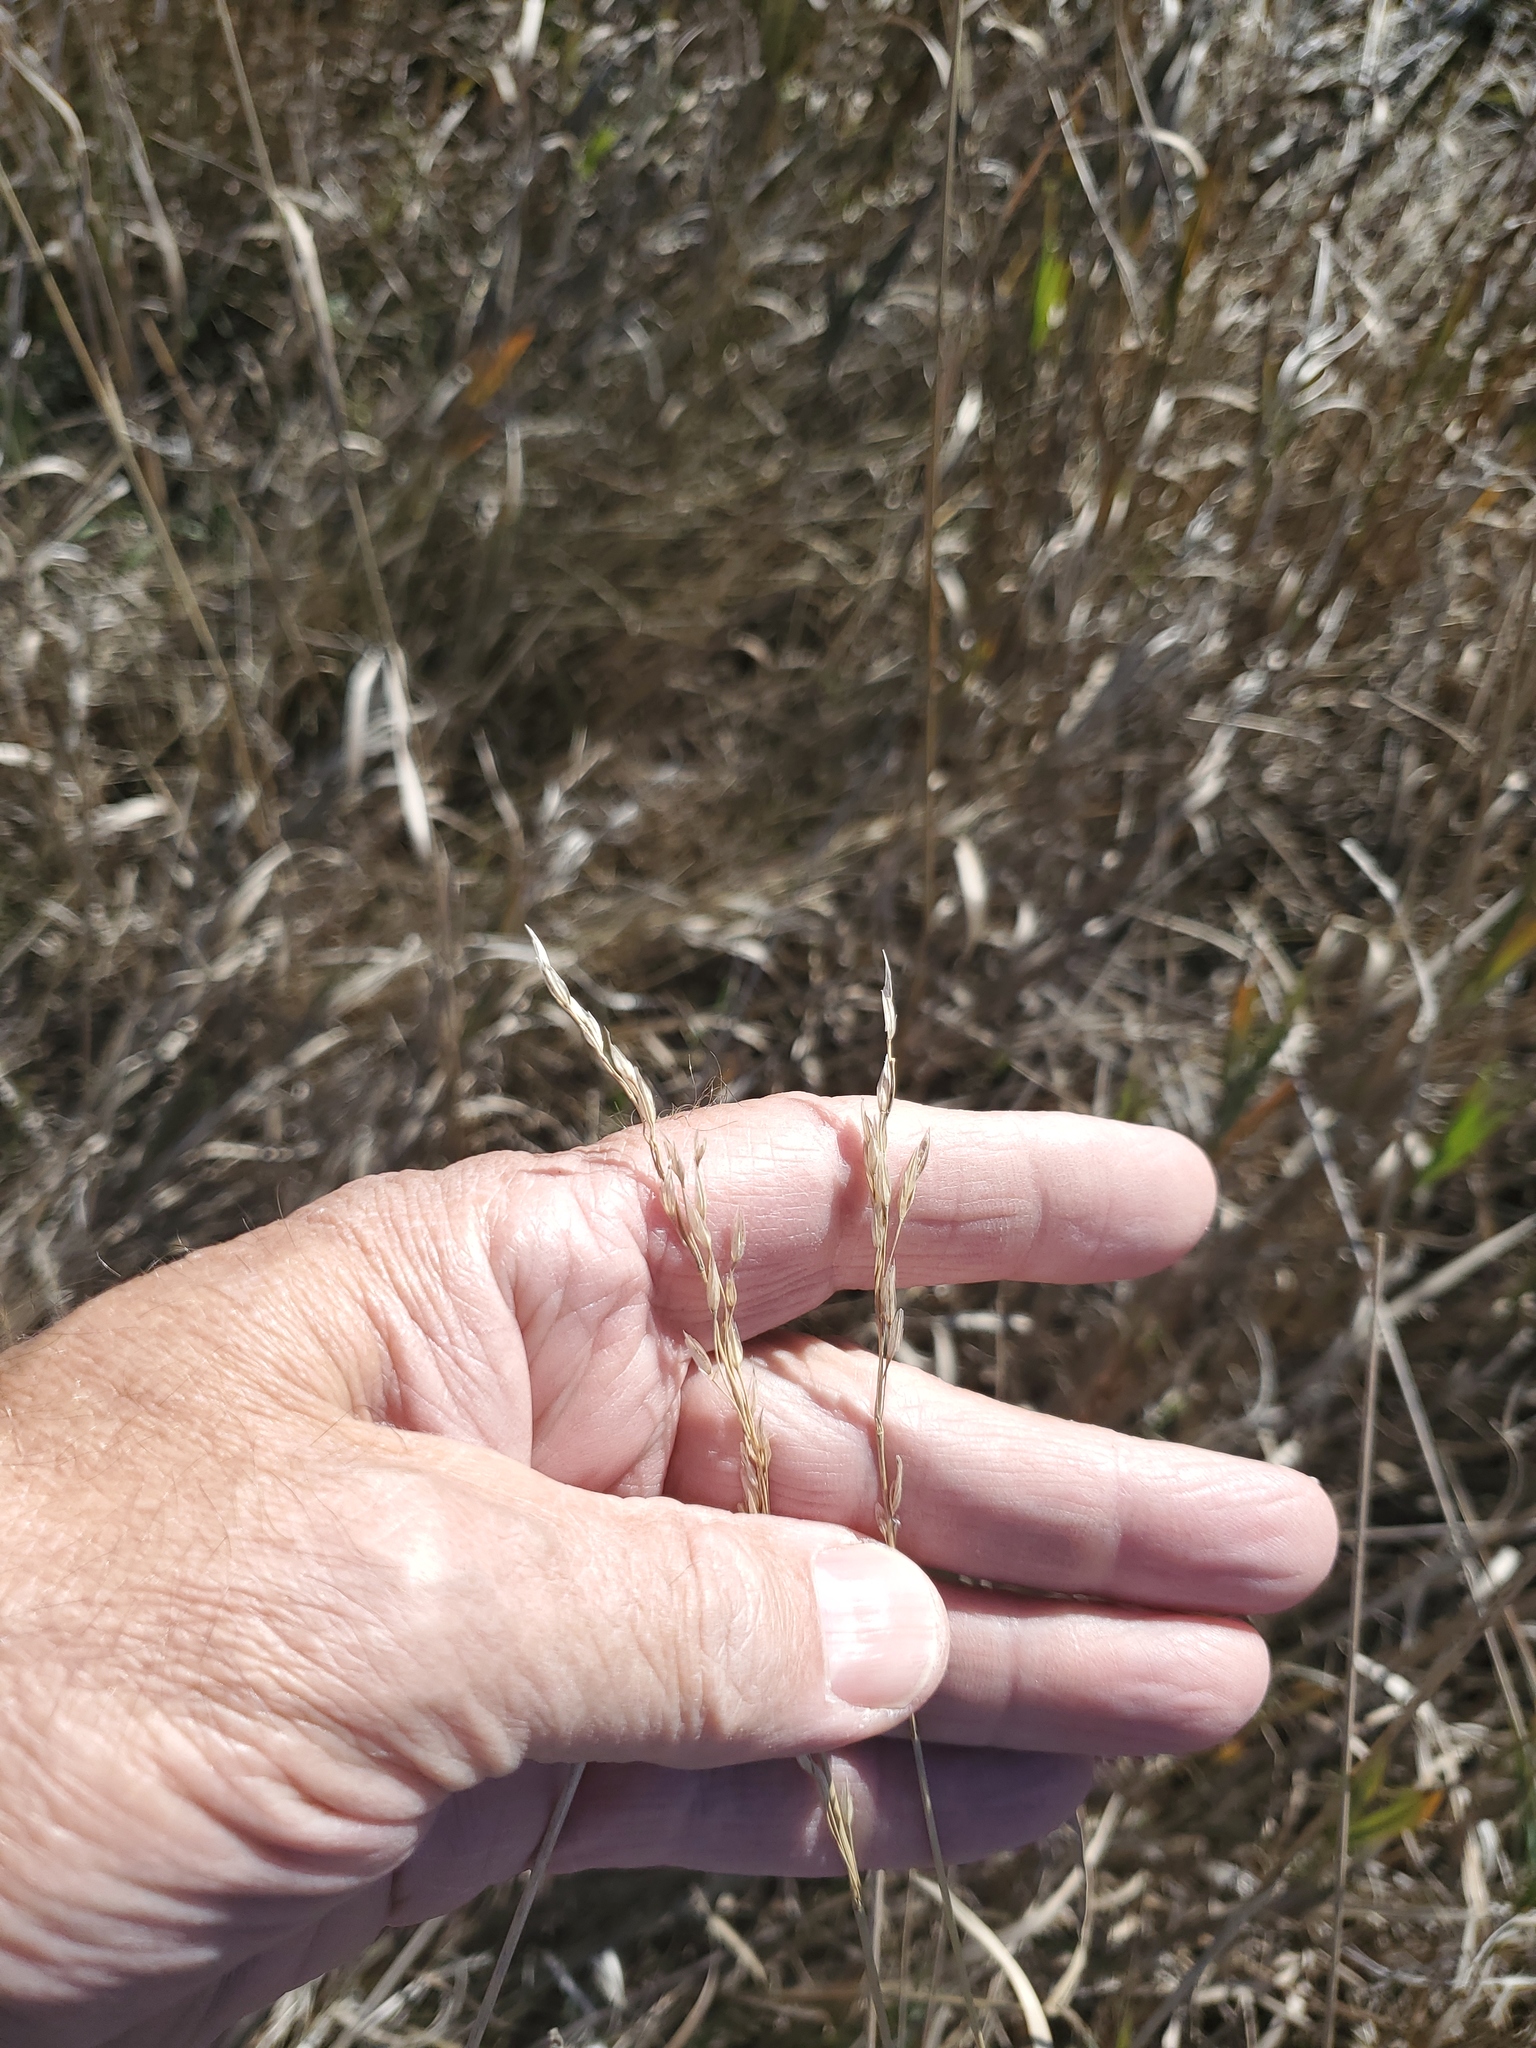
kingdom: Plantae
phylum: Tracheophyta
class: Liliopsida
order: Poales
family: Poaceae
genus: Bromus
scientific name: Bromus inermis
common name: Smooth brome
